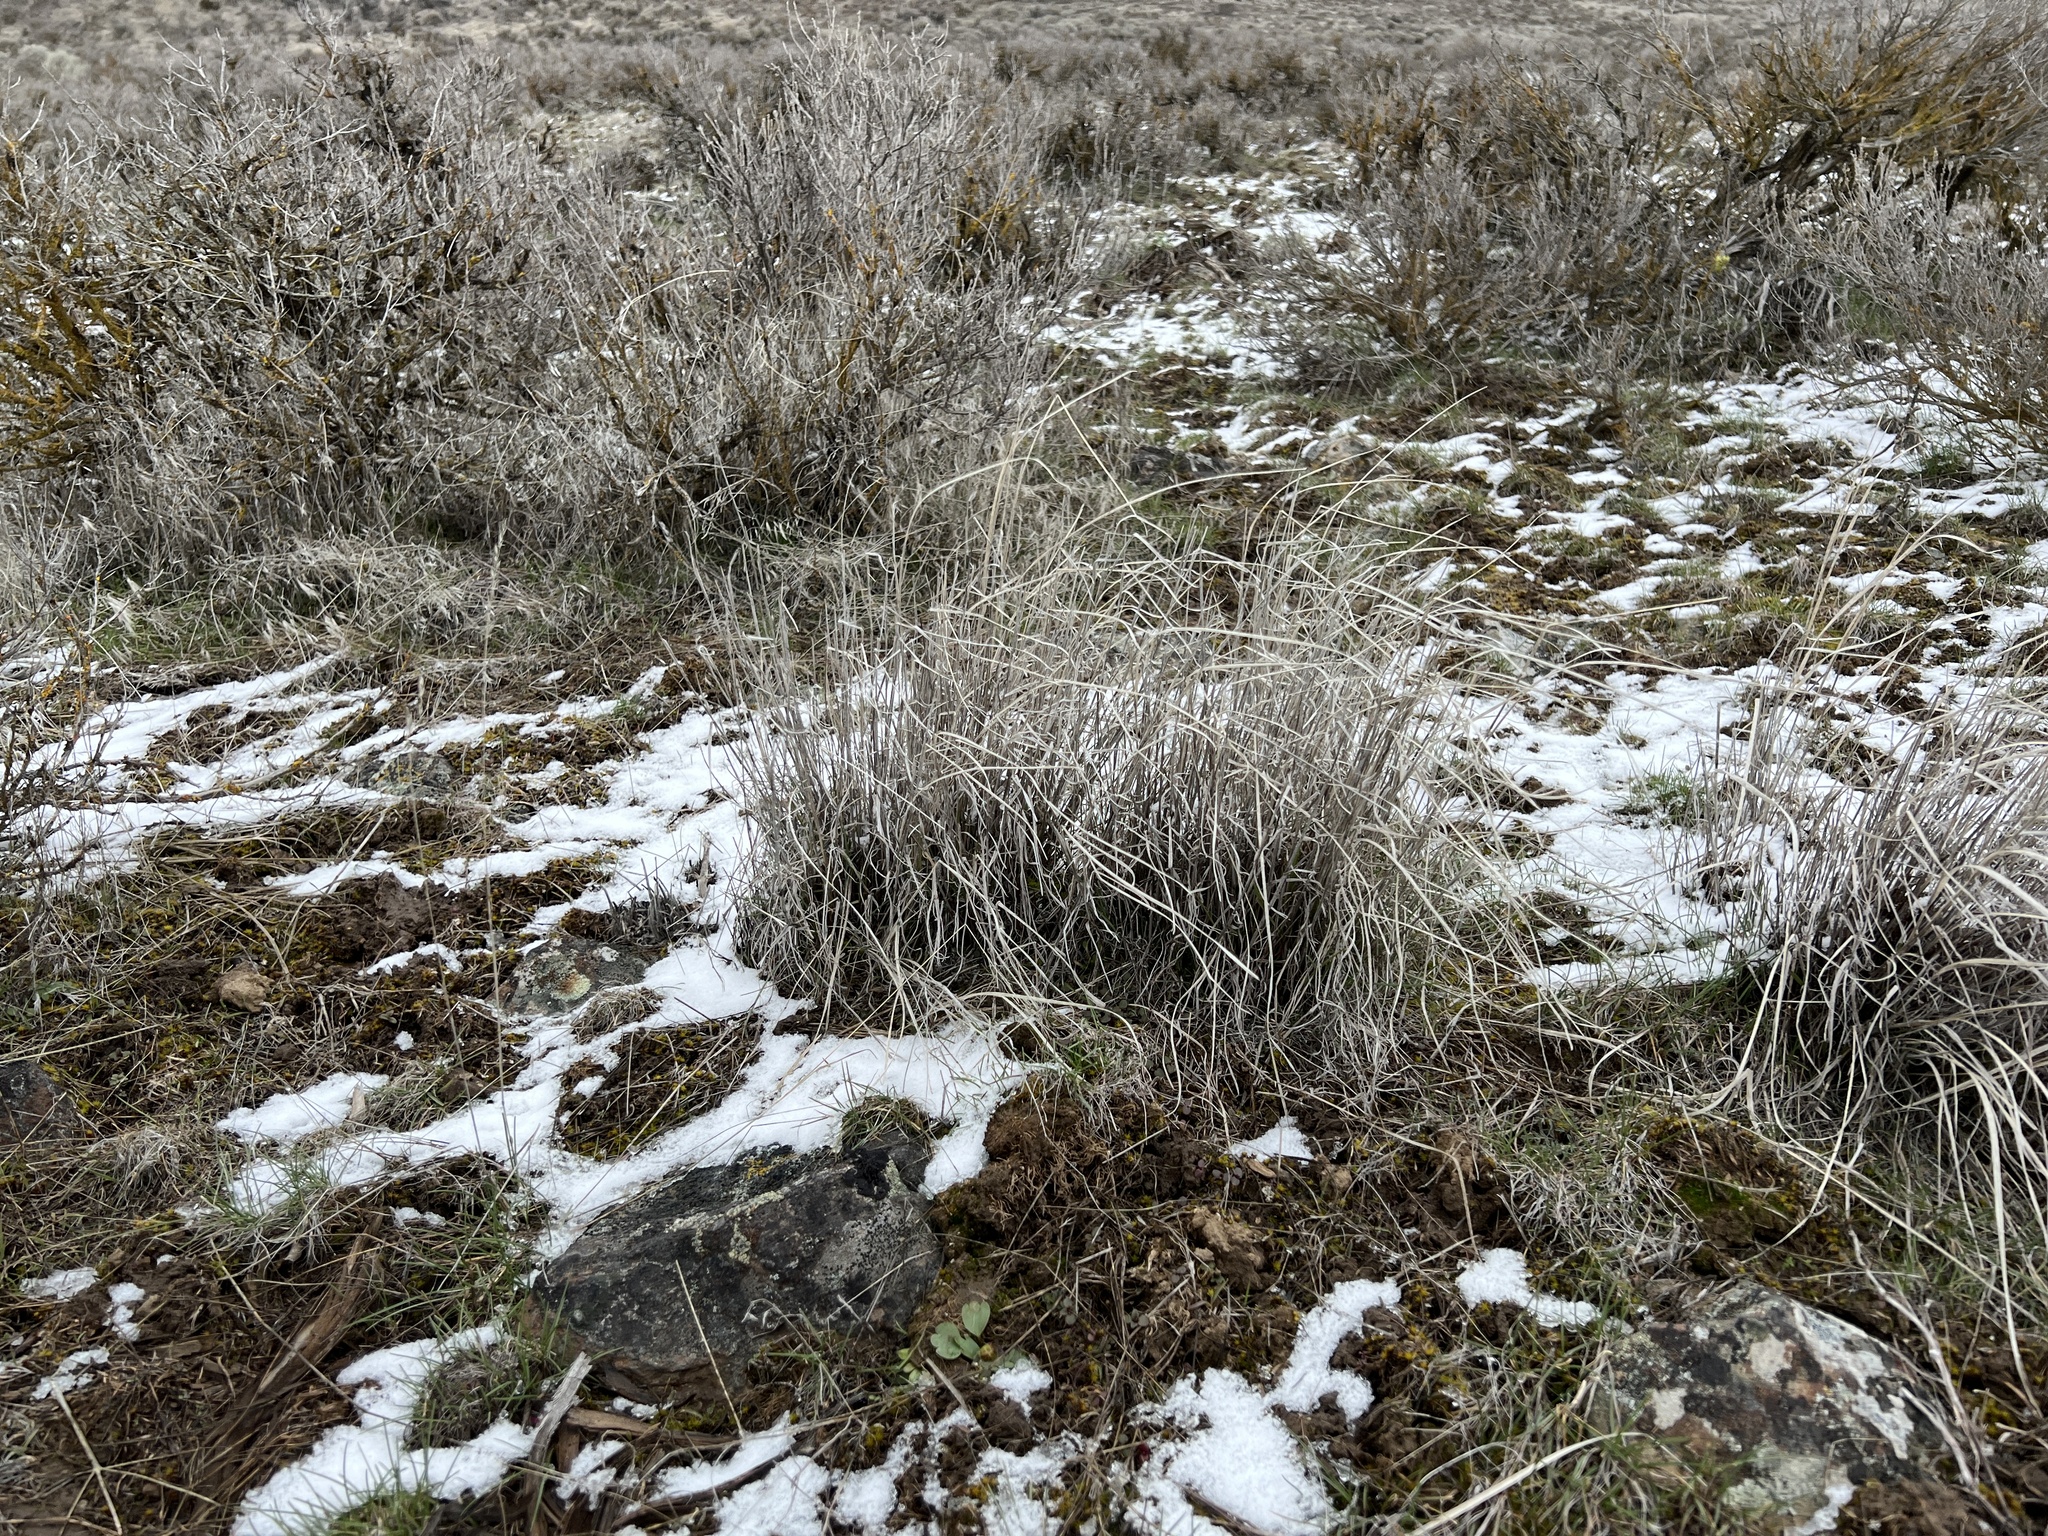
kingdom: Plantae
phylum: Tracheophyta
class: Magnoliopsida
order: Ranunculales
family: Ranunculaceae
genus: Ranunculus
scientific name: Ranunculus glaberrimus
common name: Sagebrush buttercup
